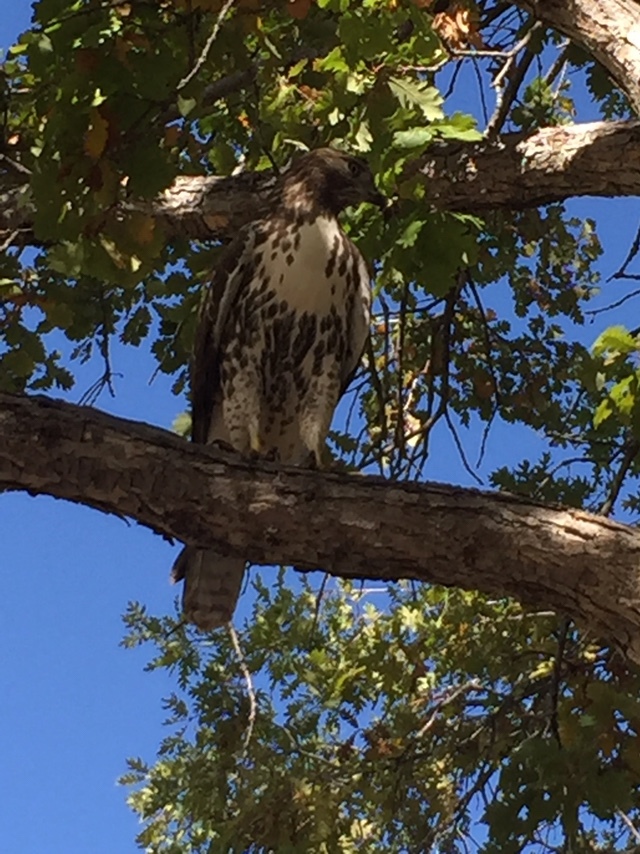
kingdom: Animalia
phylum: Chordata
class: Aves
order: Accipitriformes
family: Accipitridae
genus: Buteo
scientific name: Buteo jamaicensis
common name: Red-tailed hawk
